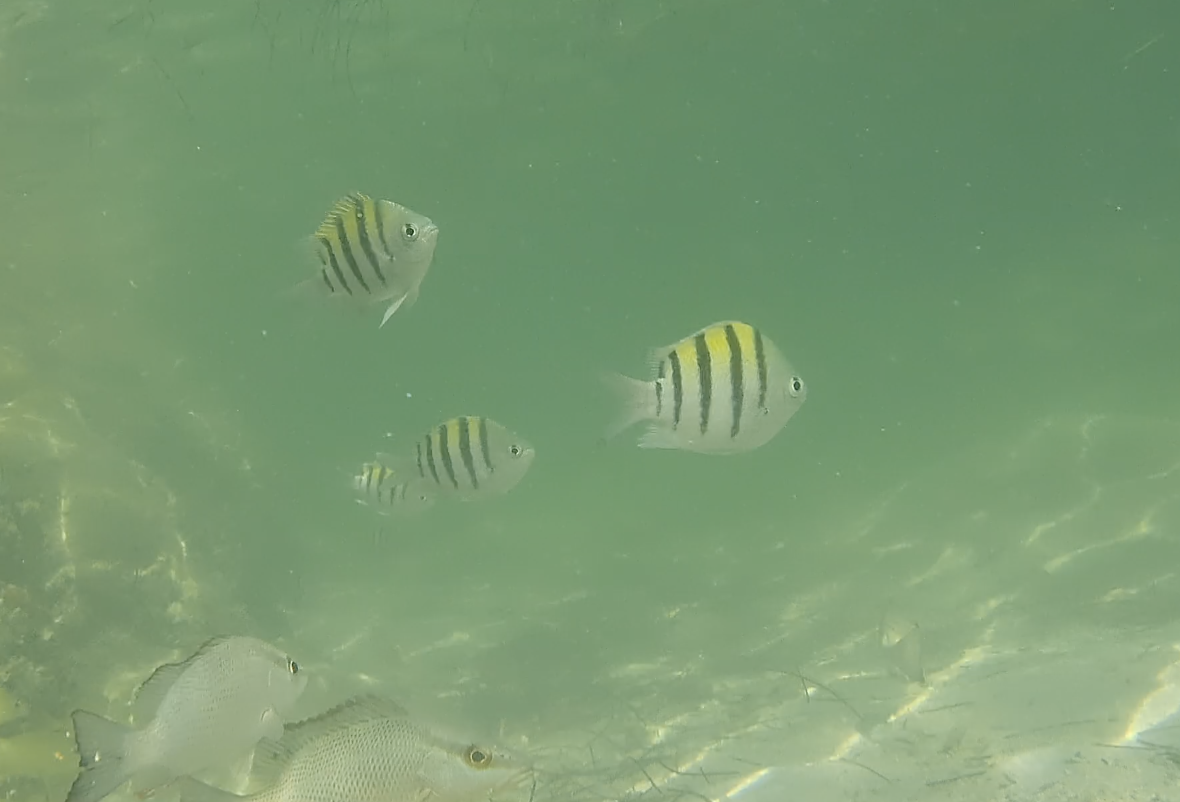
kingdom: Animalia
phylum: Chordata
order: Perciformes
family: Pomacentridae
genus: Abudefduf
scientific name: Abudefduf saxatilis
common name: Sergeant major
